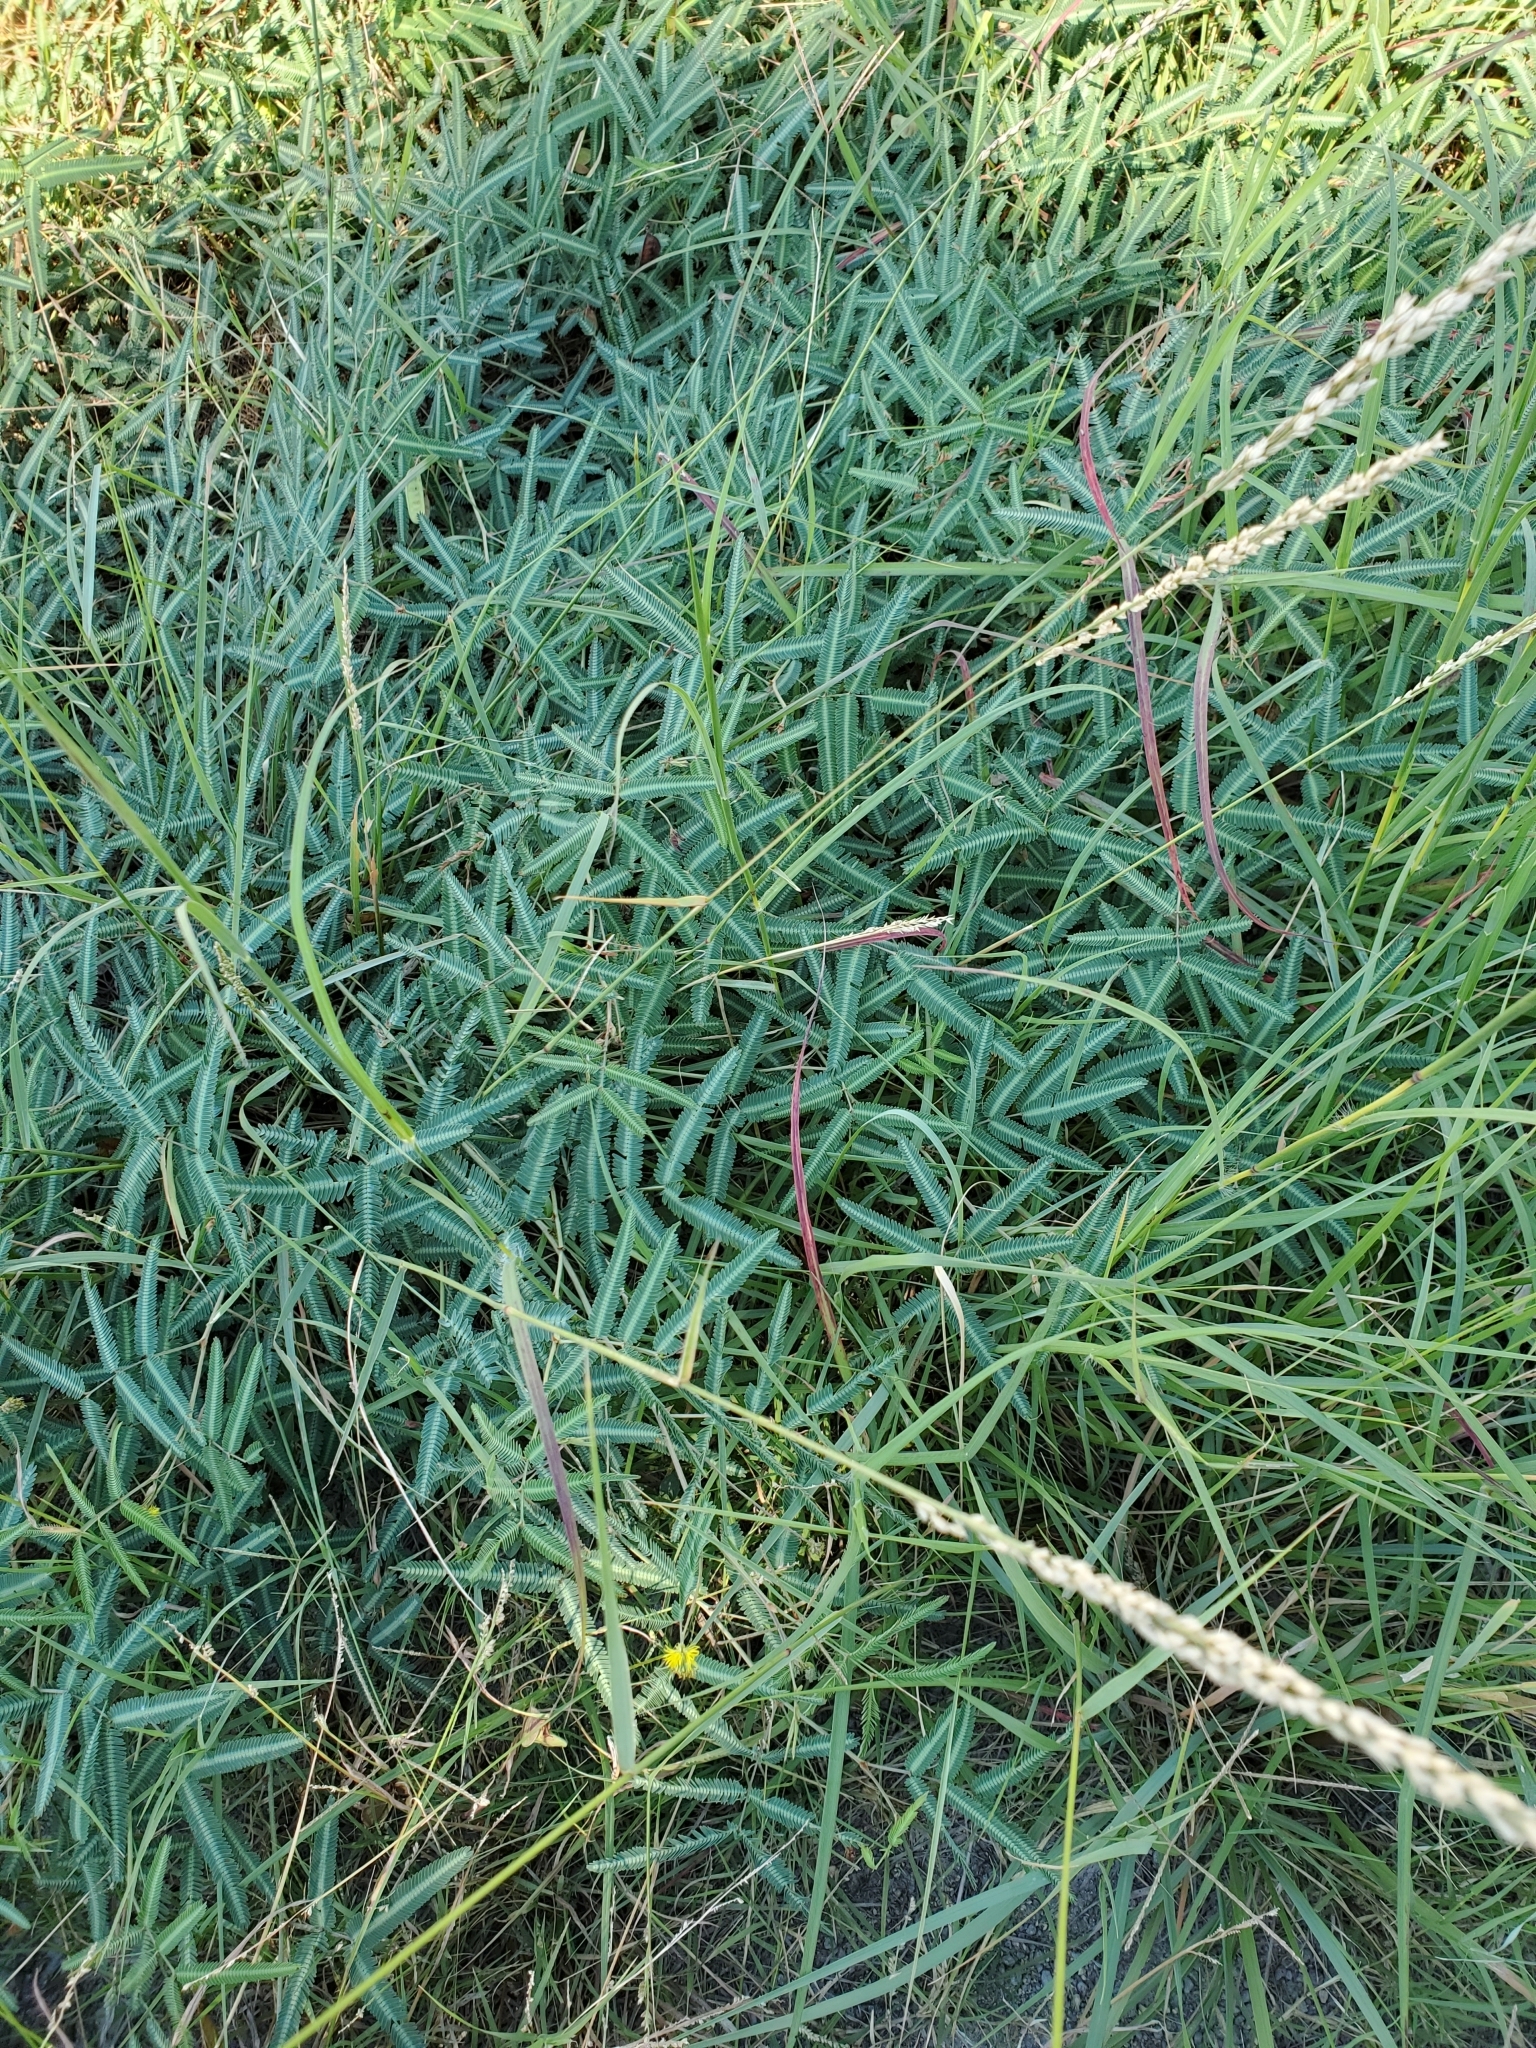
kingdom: Plantae
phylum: Tracheophyta
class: Magnoliopsida
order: Fabales
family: Fabaceae
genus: Neptunia
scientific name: Neptunia pubescens
